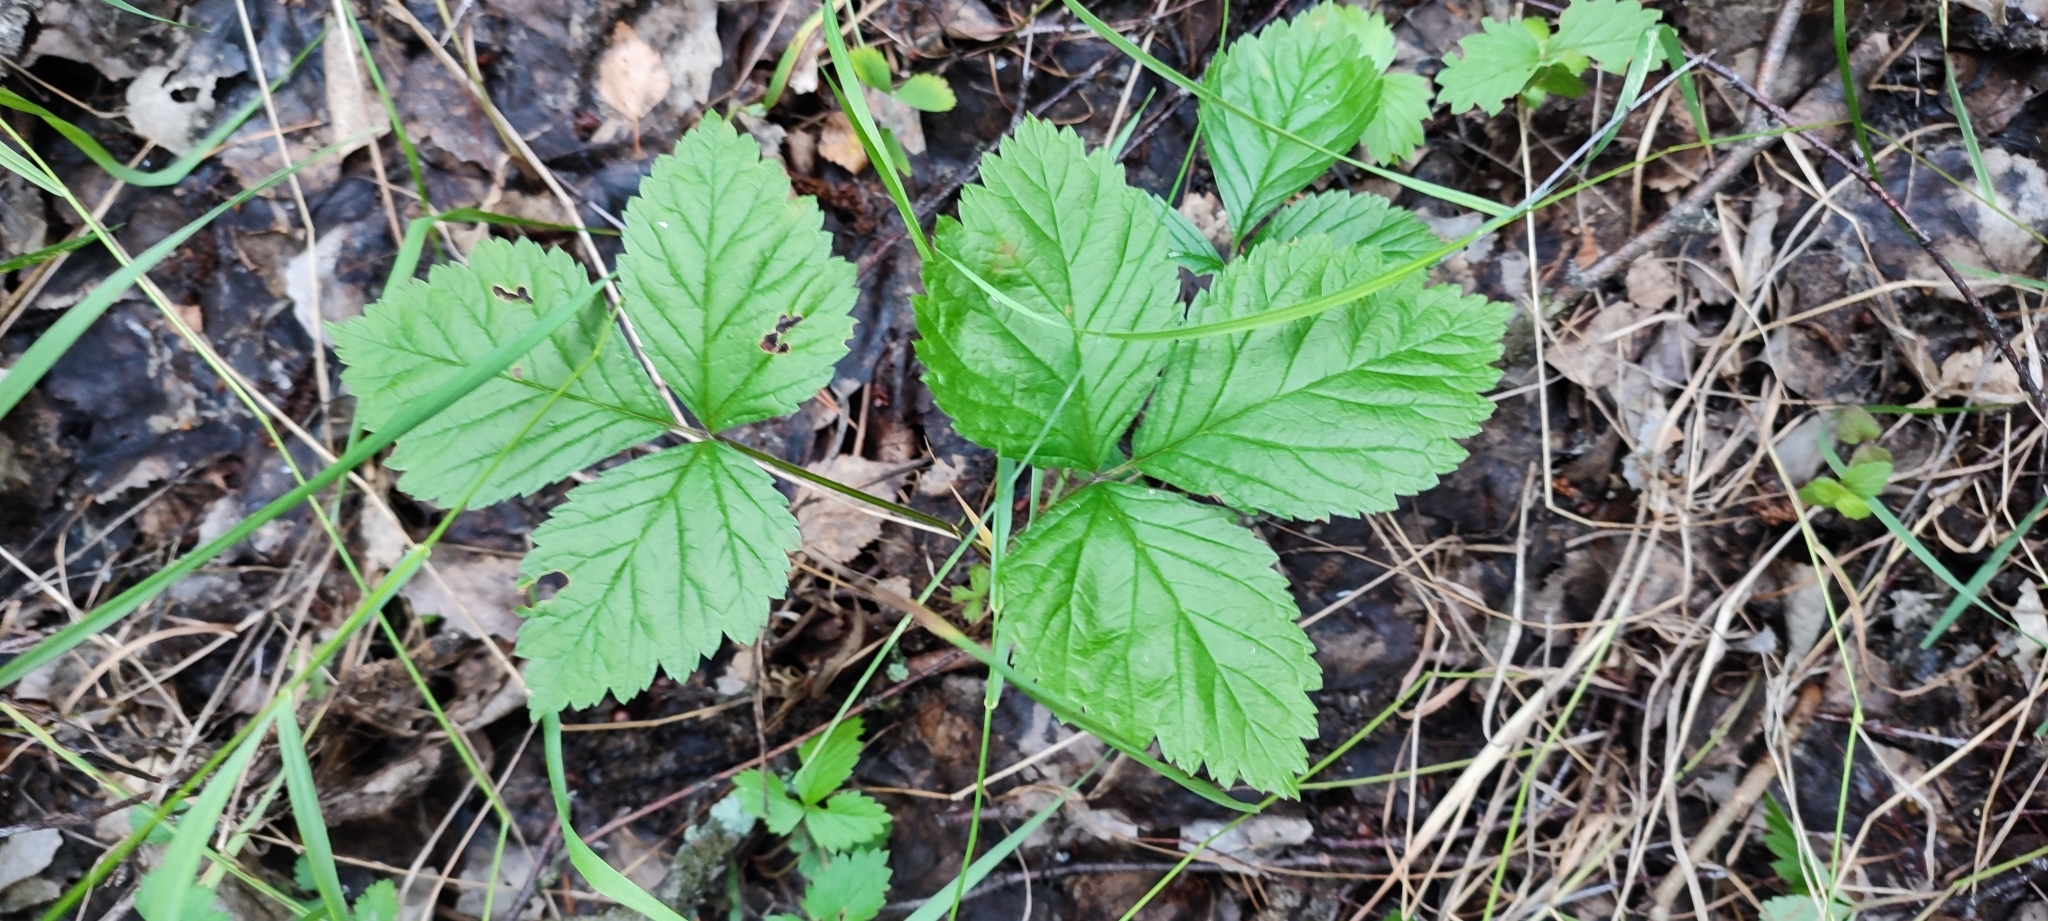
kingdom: Plantae
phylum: Tracheophyta
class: Magnoliopsida
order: Rosales
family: Rosaceae
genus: Rubus
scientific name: Rubus saxatilis
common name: Stone bramble
